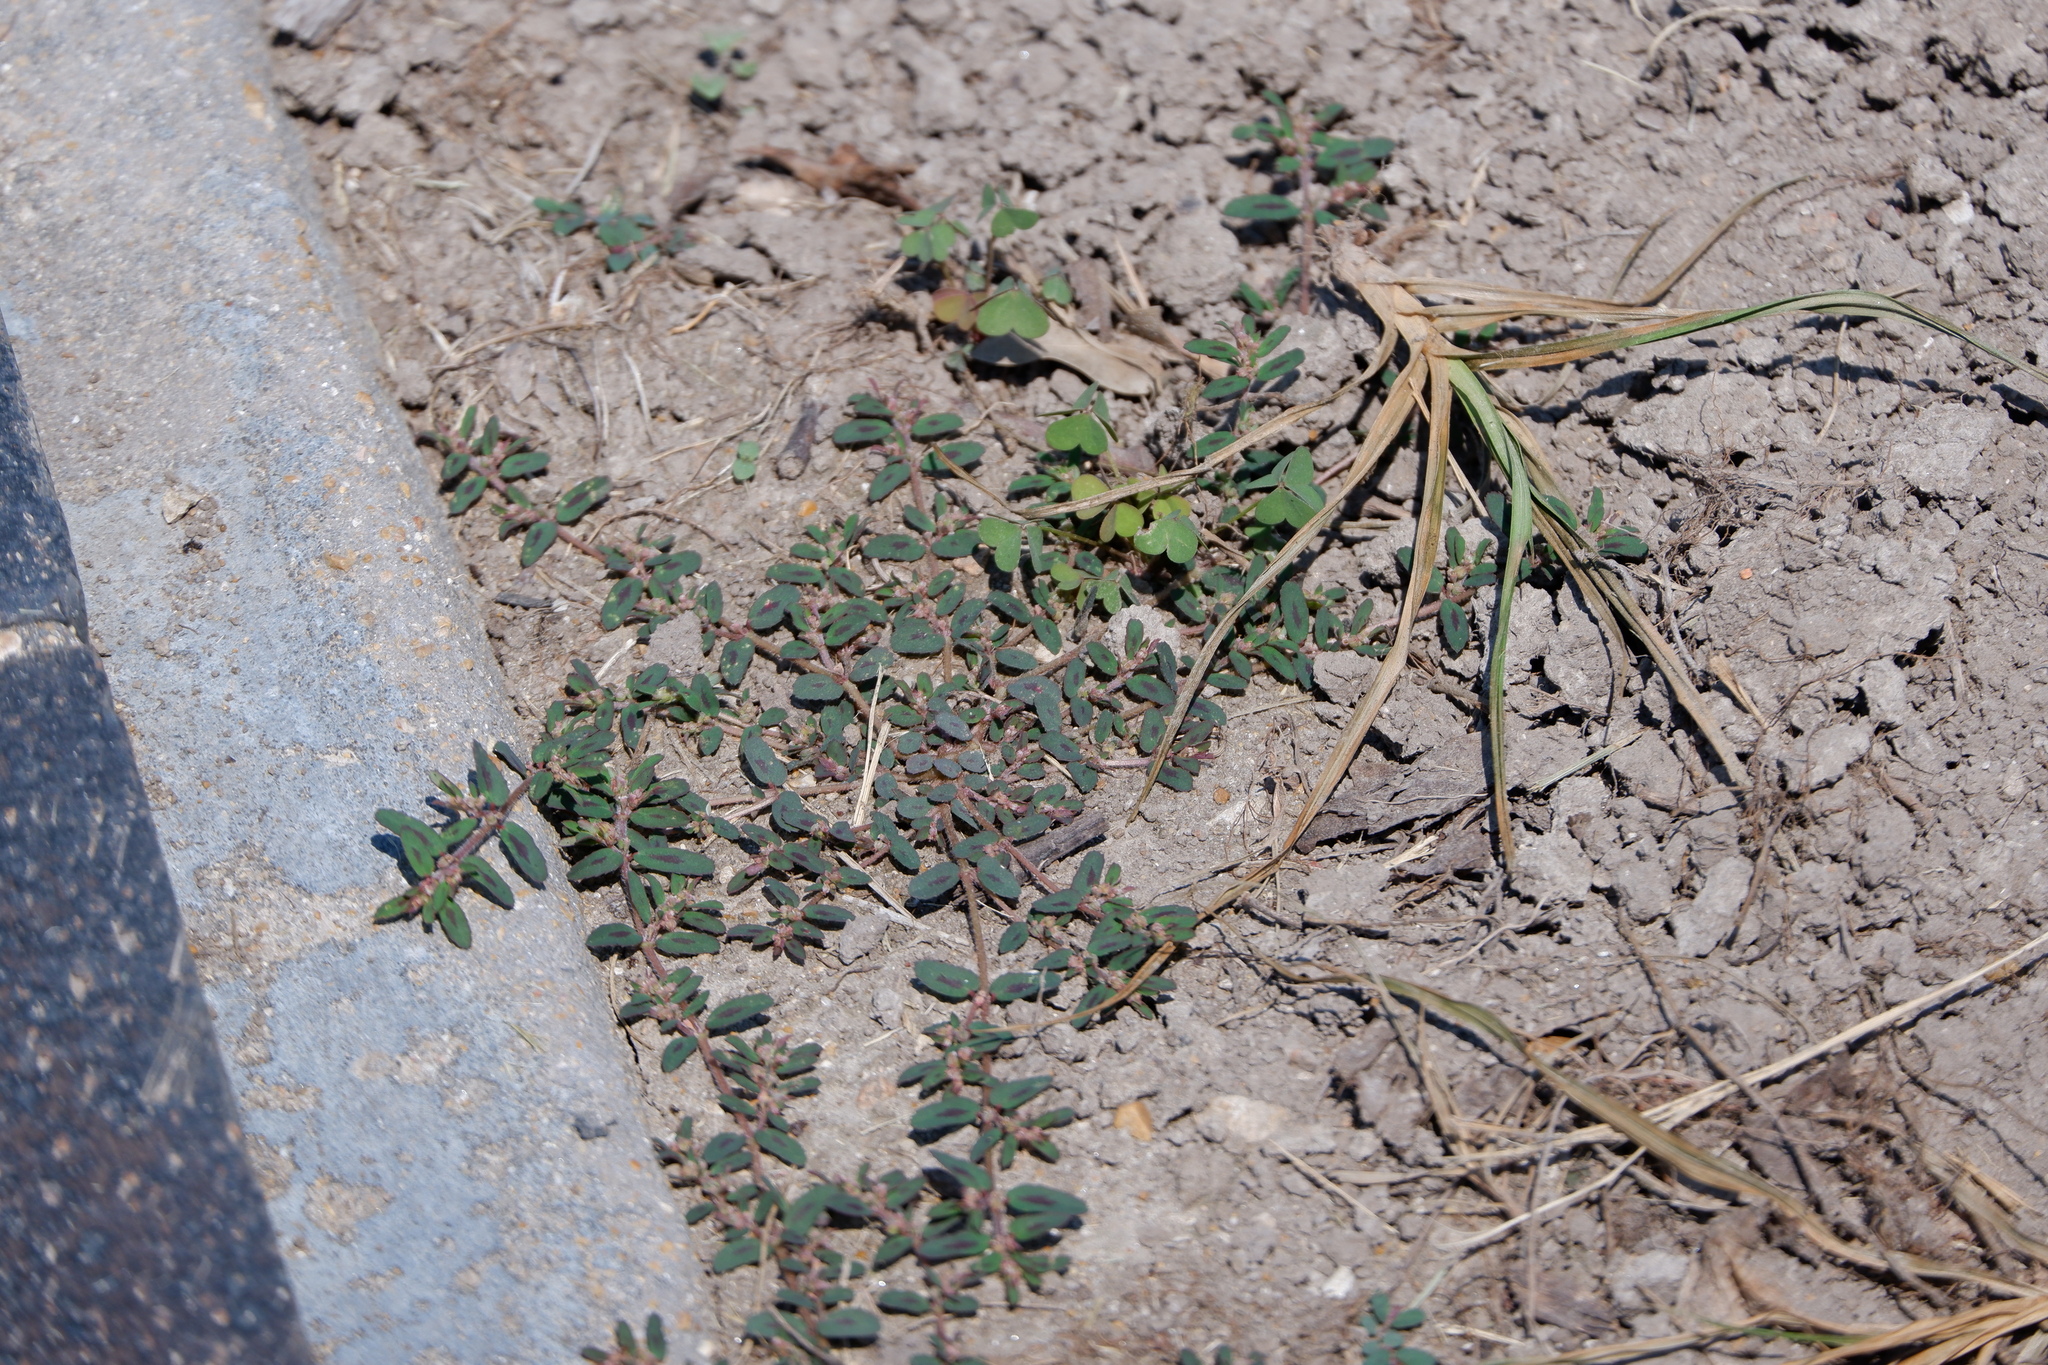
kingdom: Plantae
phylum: Tracheophyta
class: Magnoliopsida
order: Malpighiales
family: Euphorbiaceae
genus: Euphorbia
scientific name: Euphorbia maculata
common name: Spotted spurge
